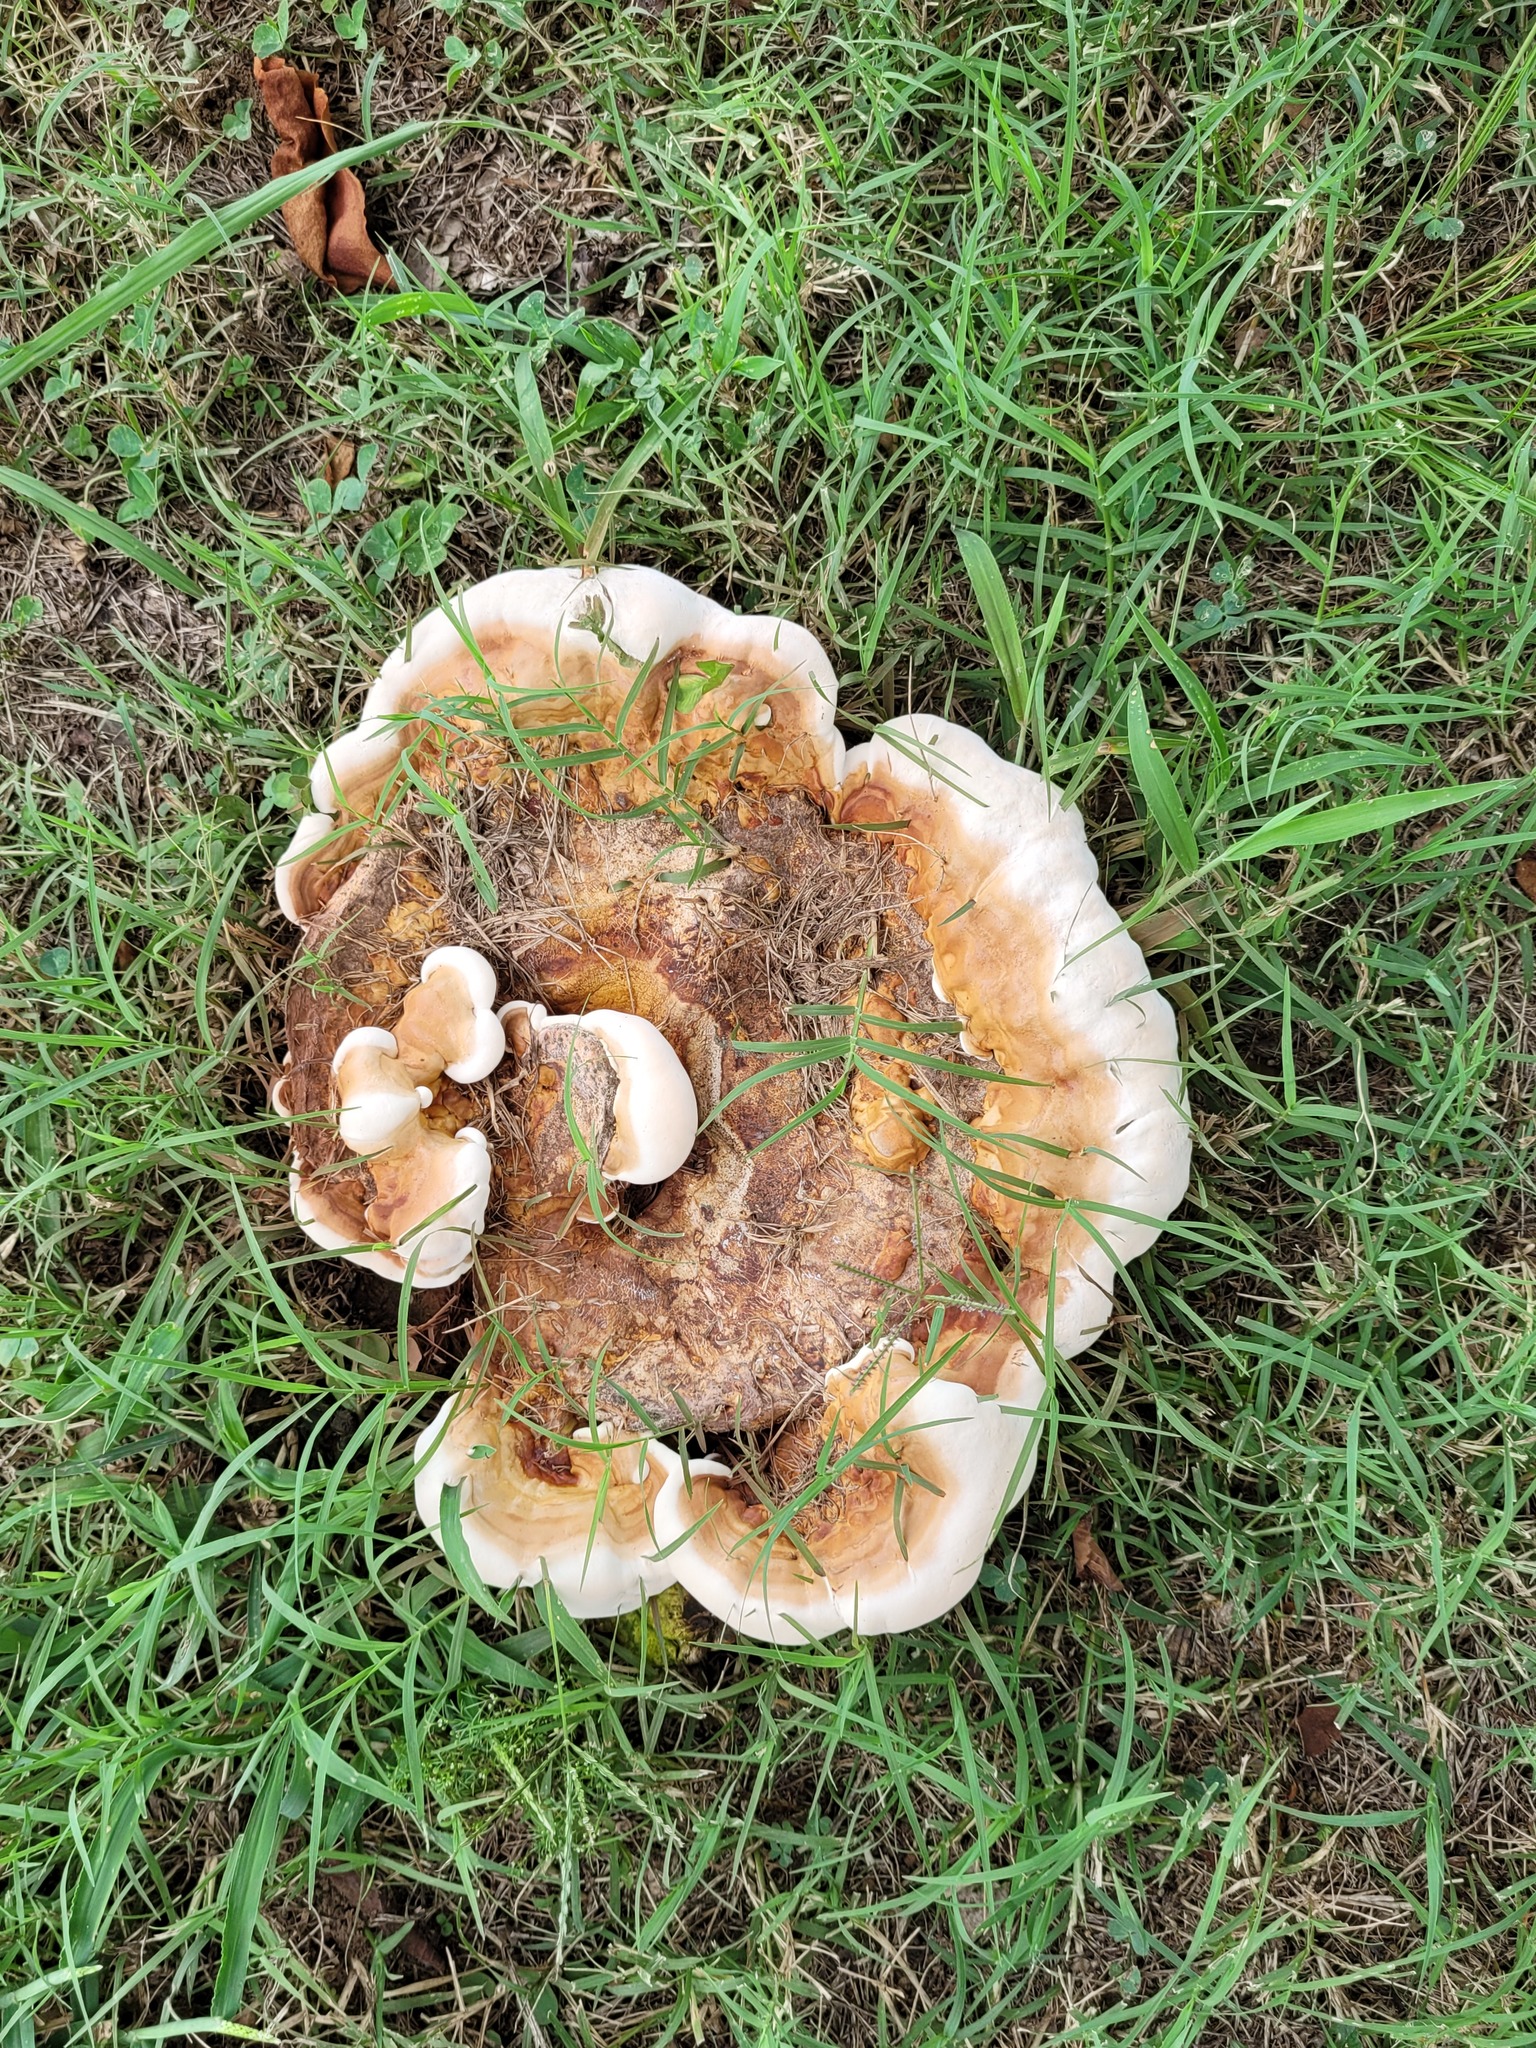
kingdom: Fungi
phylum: Basidiomycota
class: Agaricomycetes
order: Polyporales
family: Polyporaceae
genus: Ganoderma
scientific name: Ganoderma resinaceum
